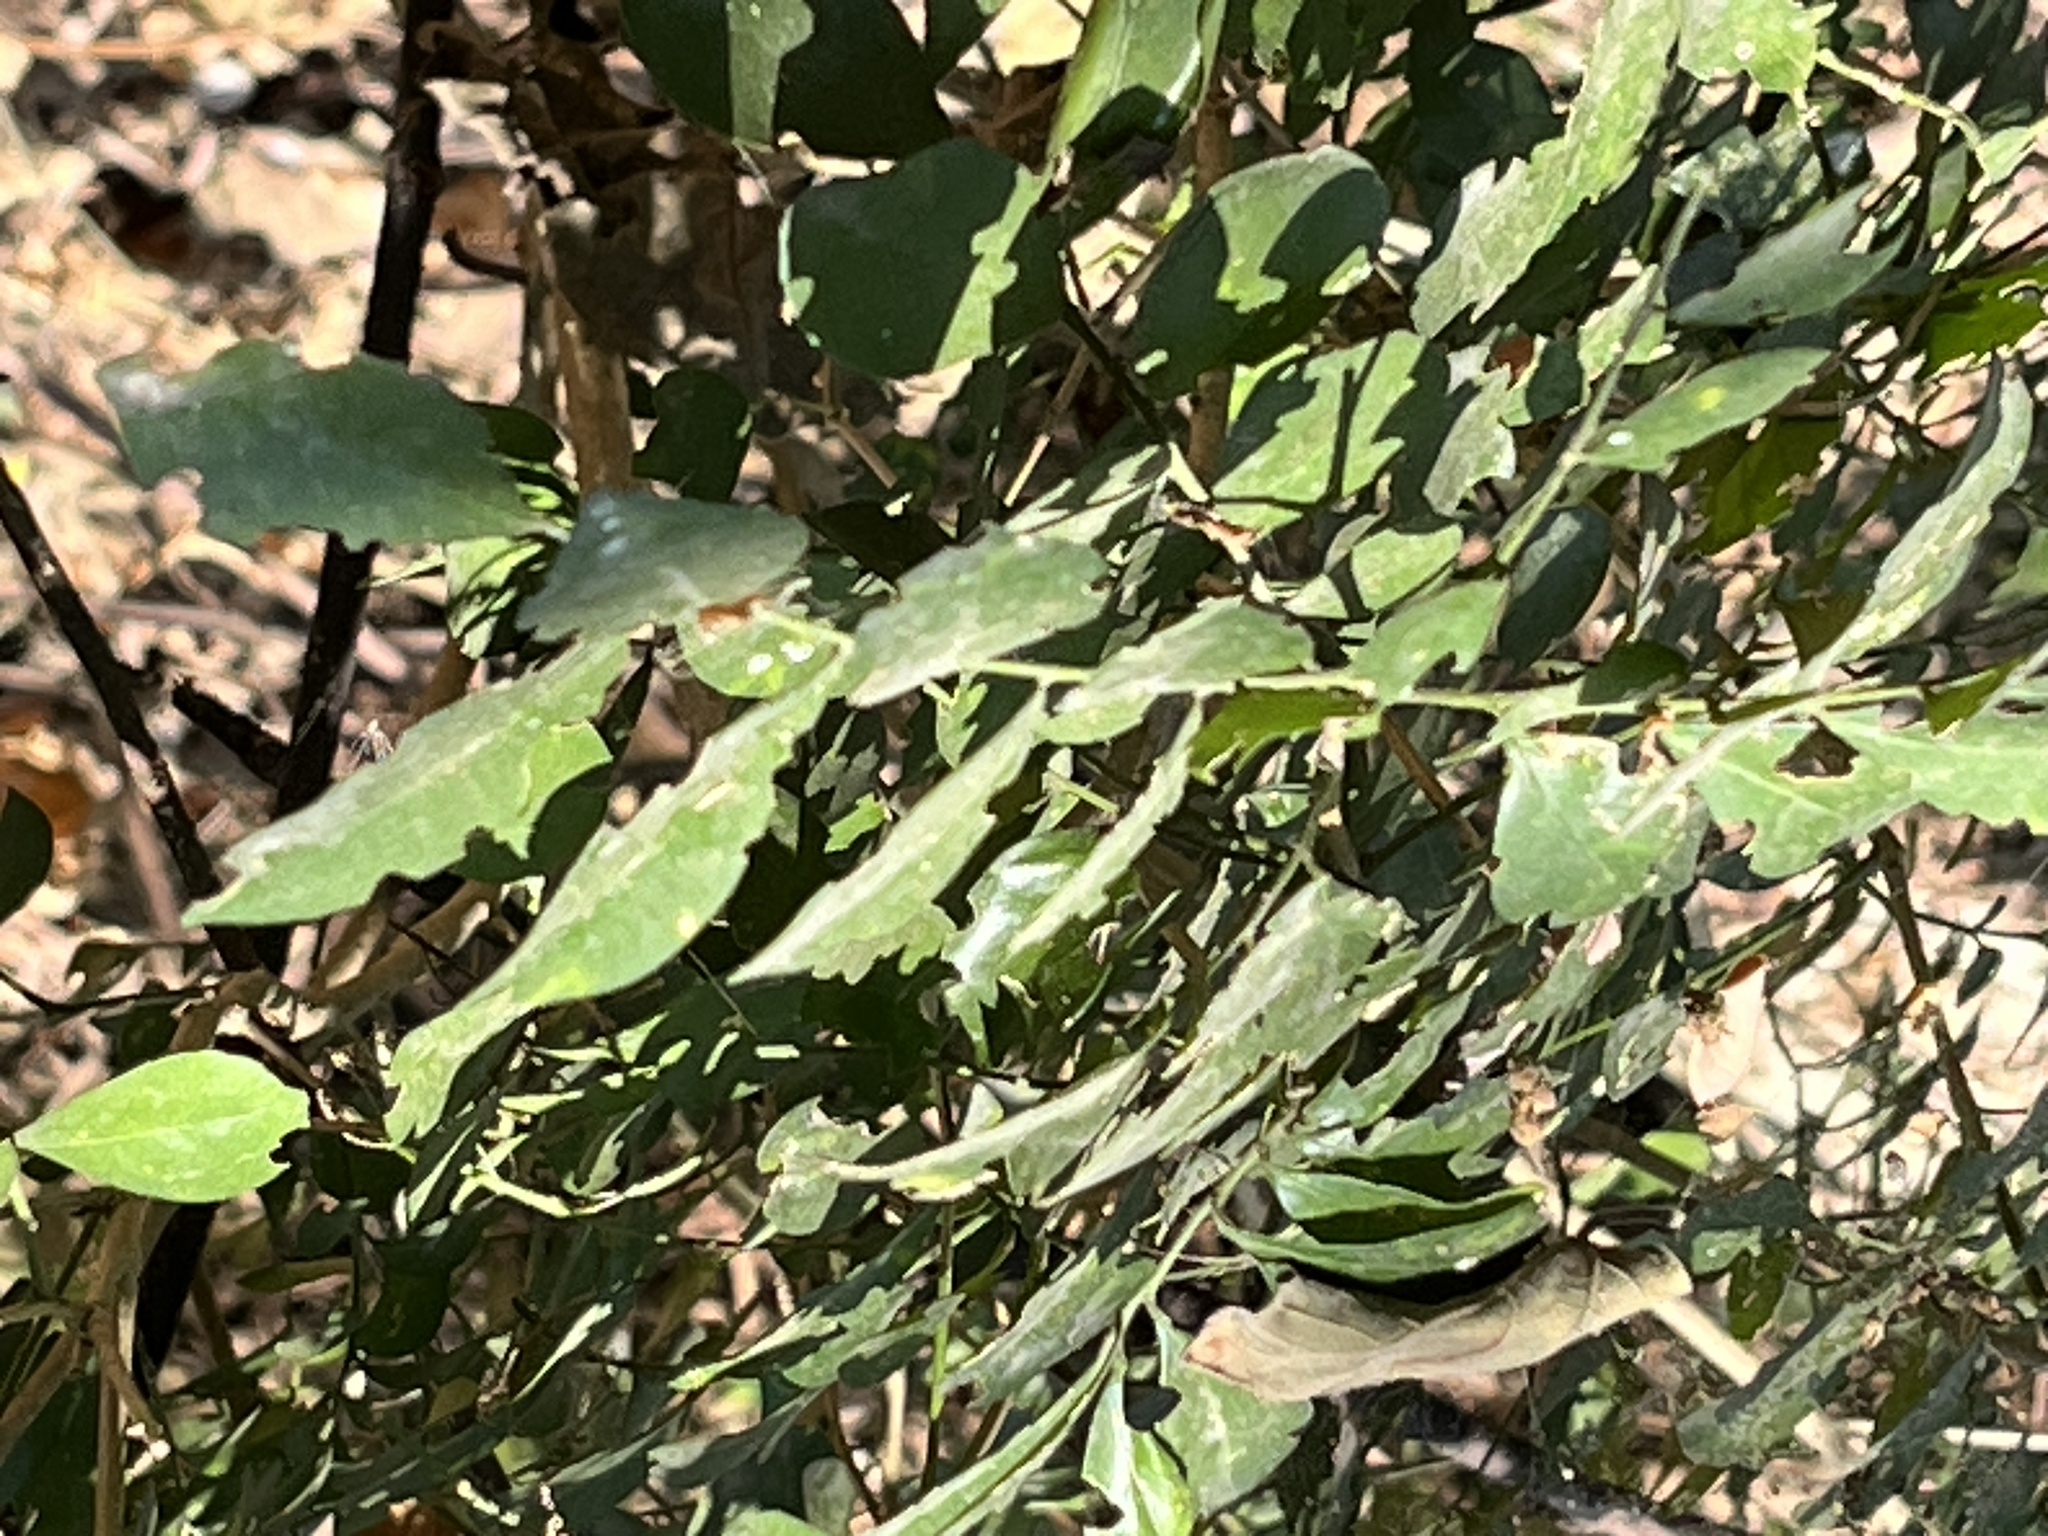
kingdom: Plantae
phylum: Tracheophyta
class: Magnoliopsida
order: Brassicales
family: Capparaceae
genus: Capparis
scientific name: Capparis henryi
